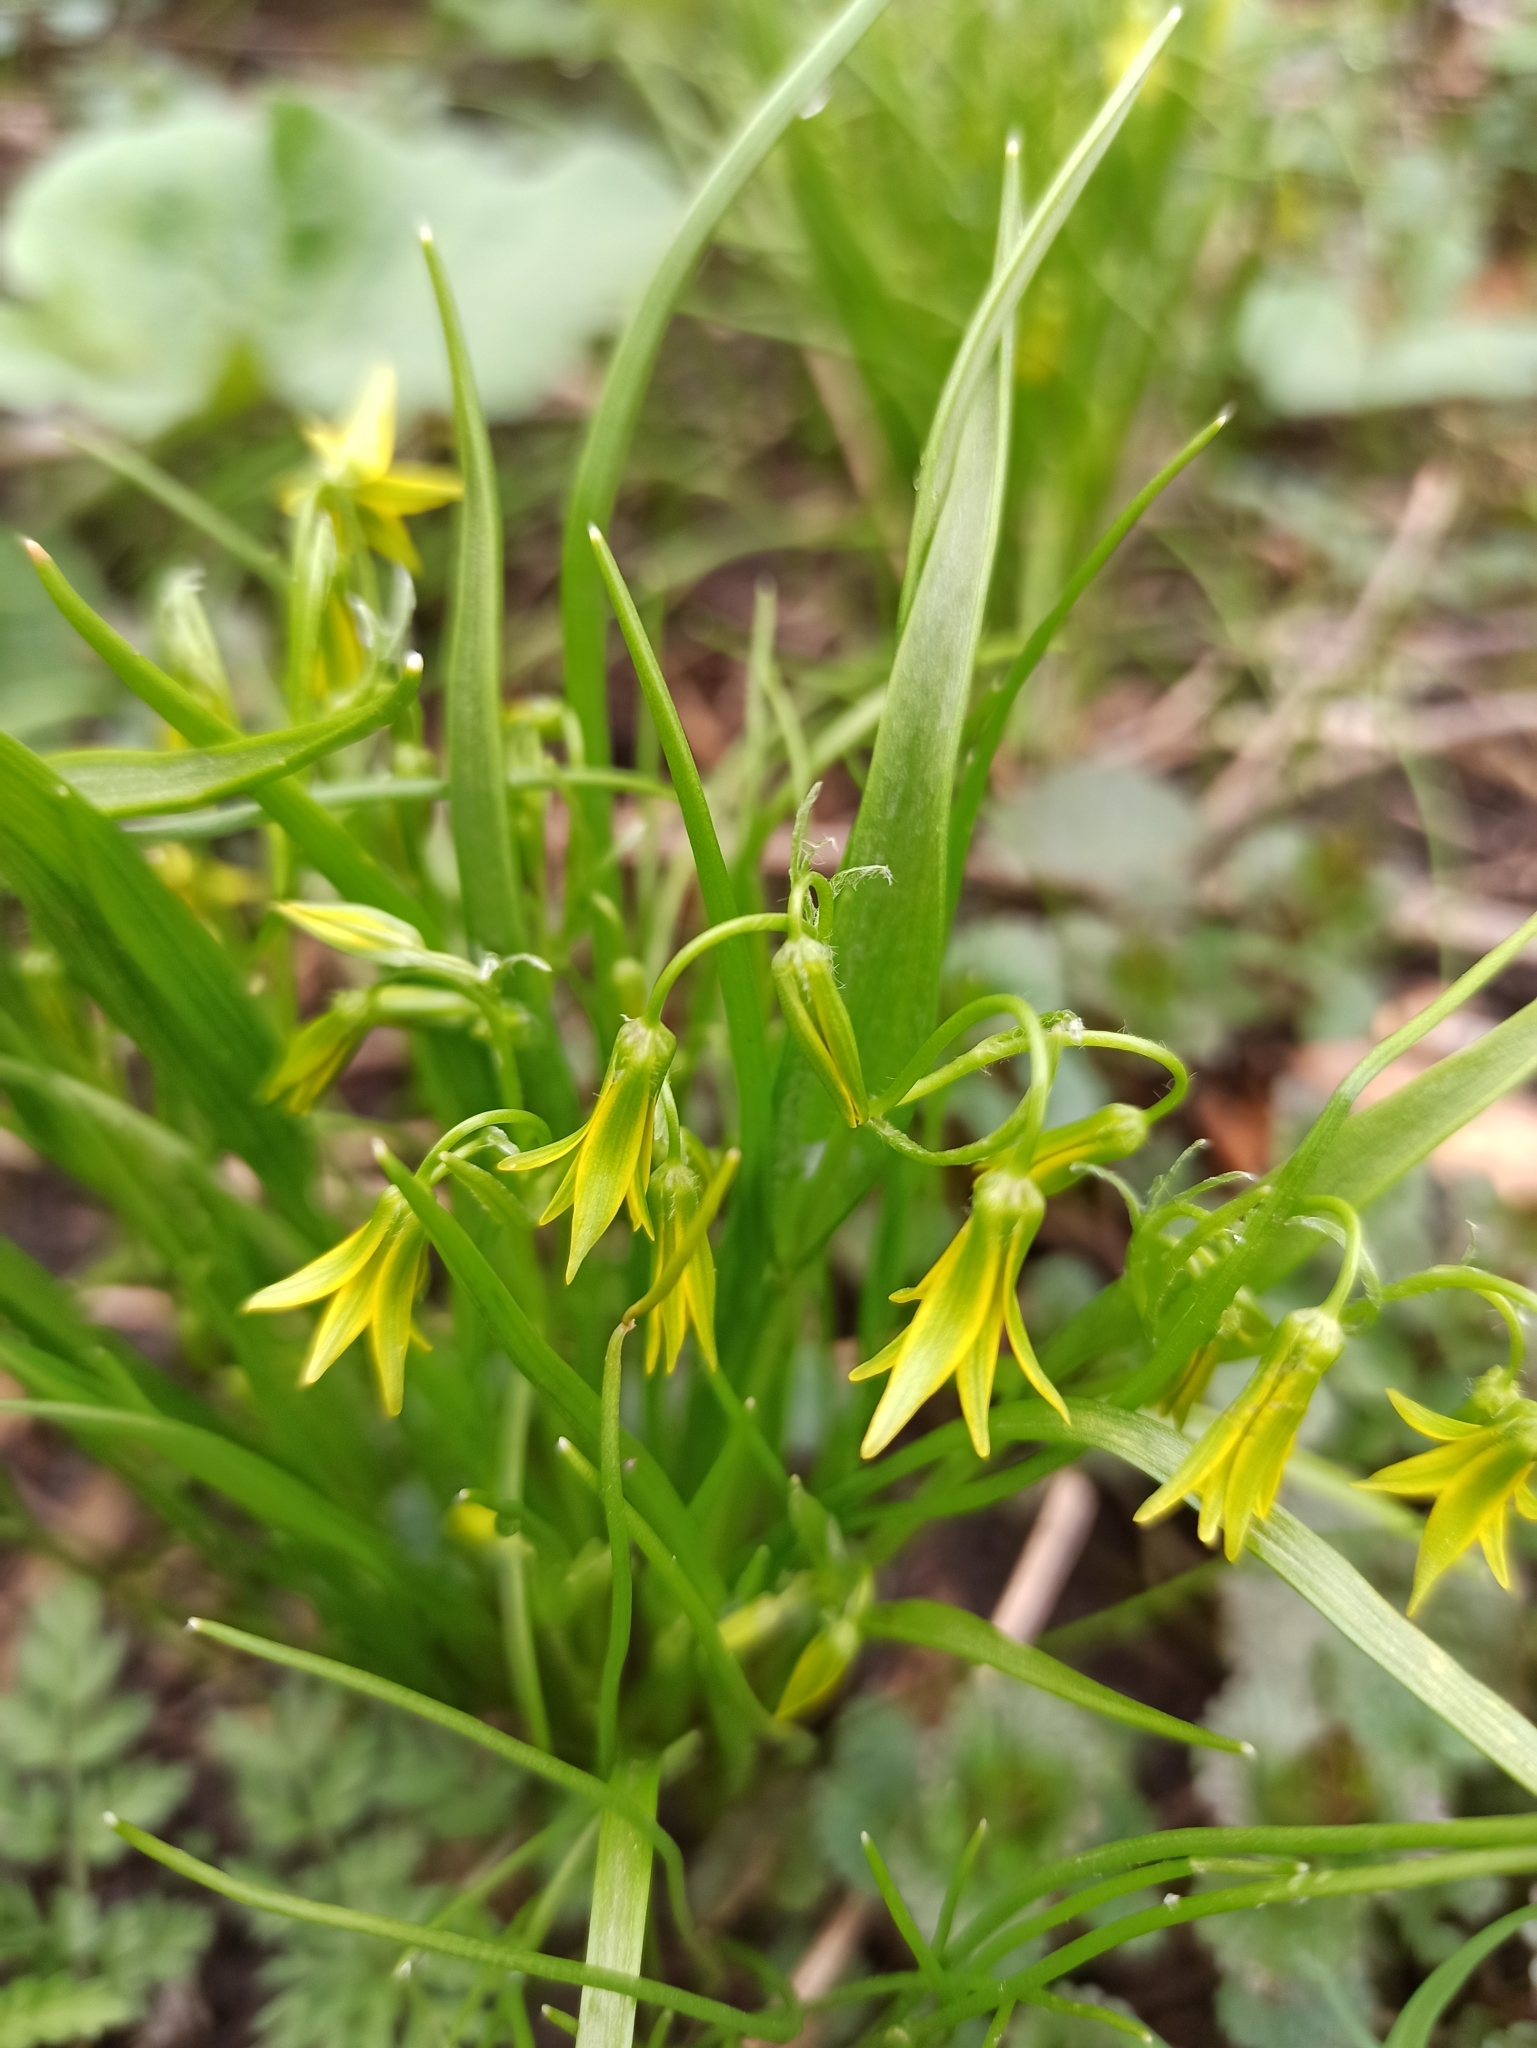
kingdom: Plantae
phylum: Tracheophyta
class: Liliopsida
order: Liliales
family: Liliaceae
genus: Gagea
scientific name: Gagea minima
